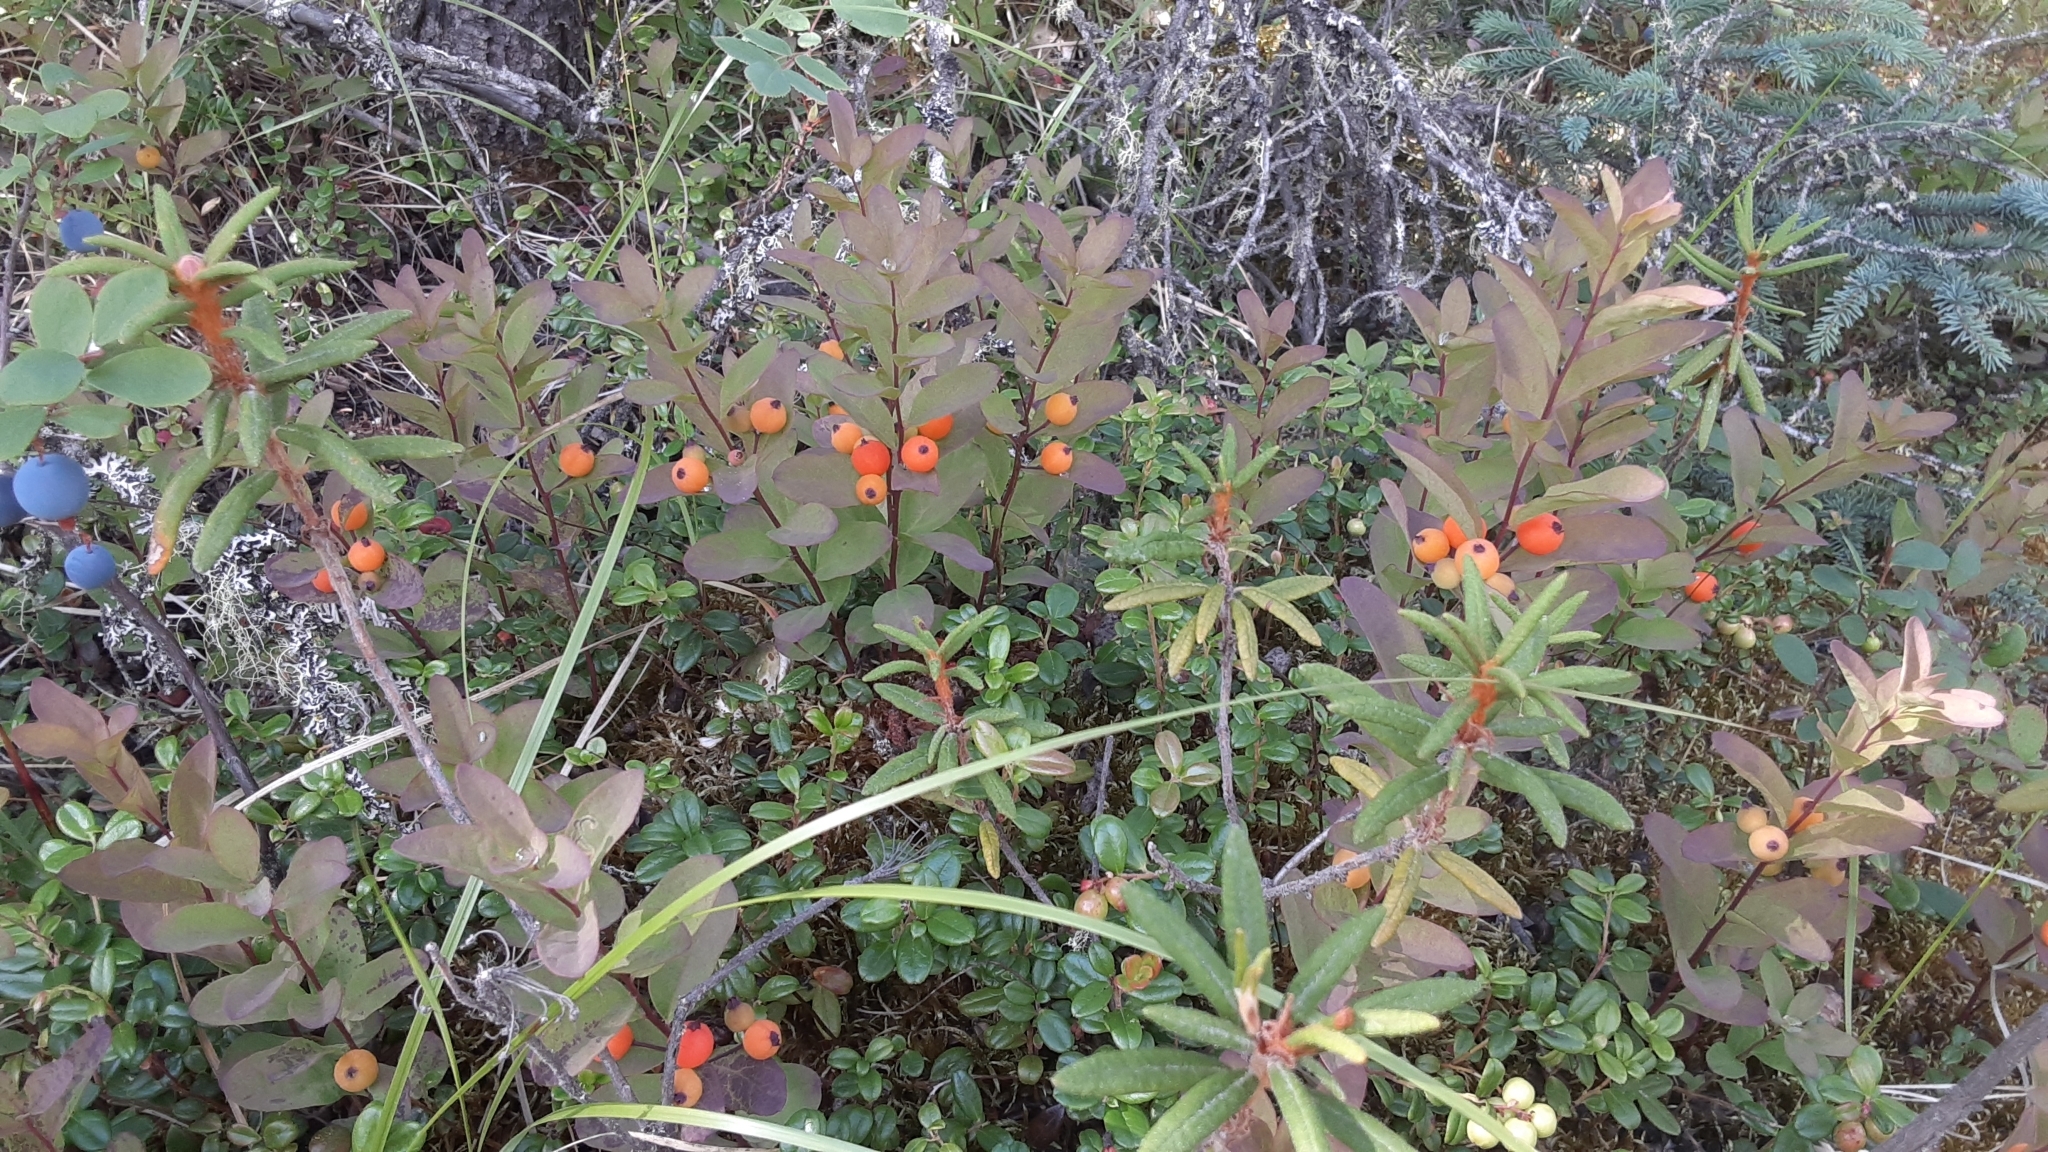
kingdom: Plantae
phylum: Tracheophyta
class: Magnoliopsida
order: Santalales
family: Comandraceae
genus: Geocaulon
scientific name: Geocaulon lividum
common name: Earthberry
